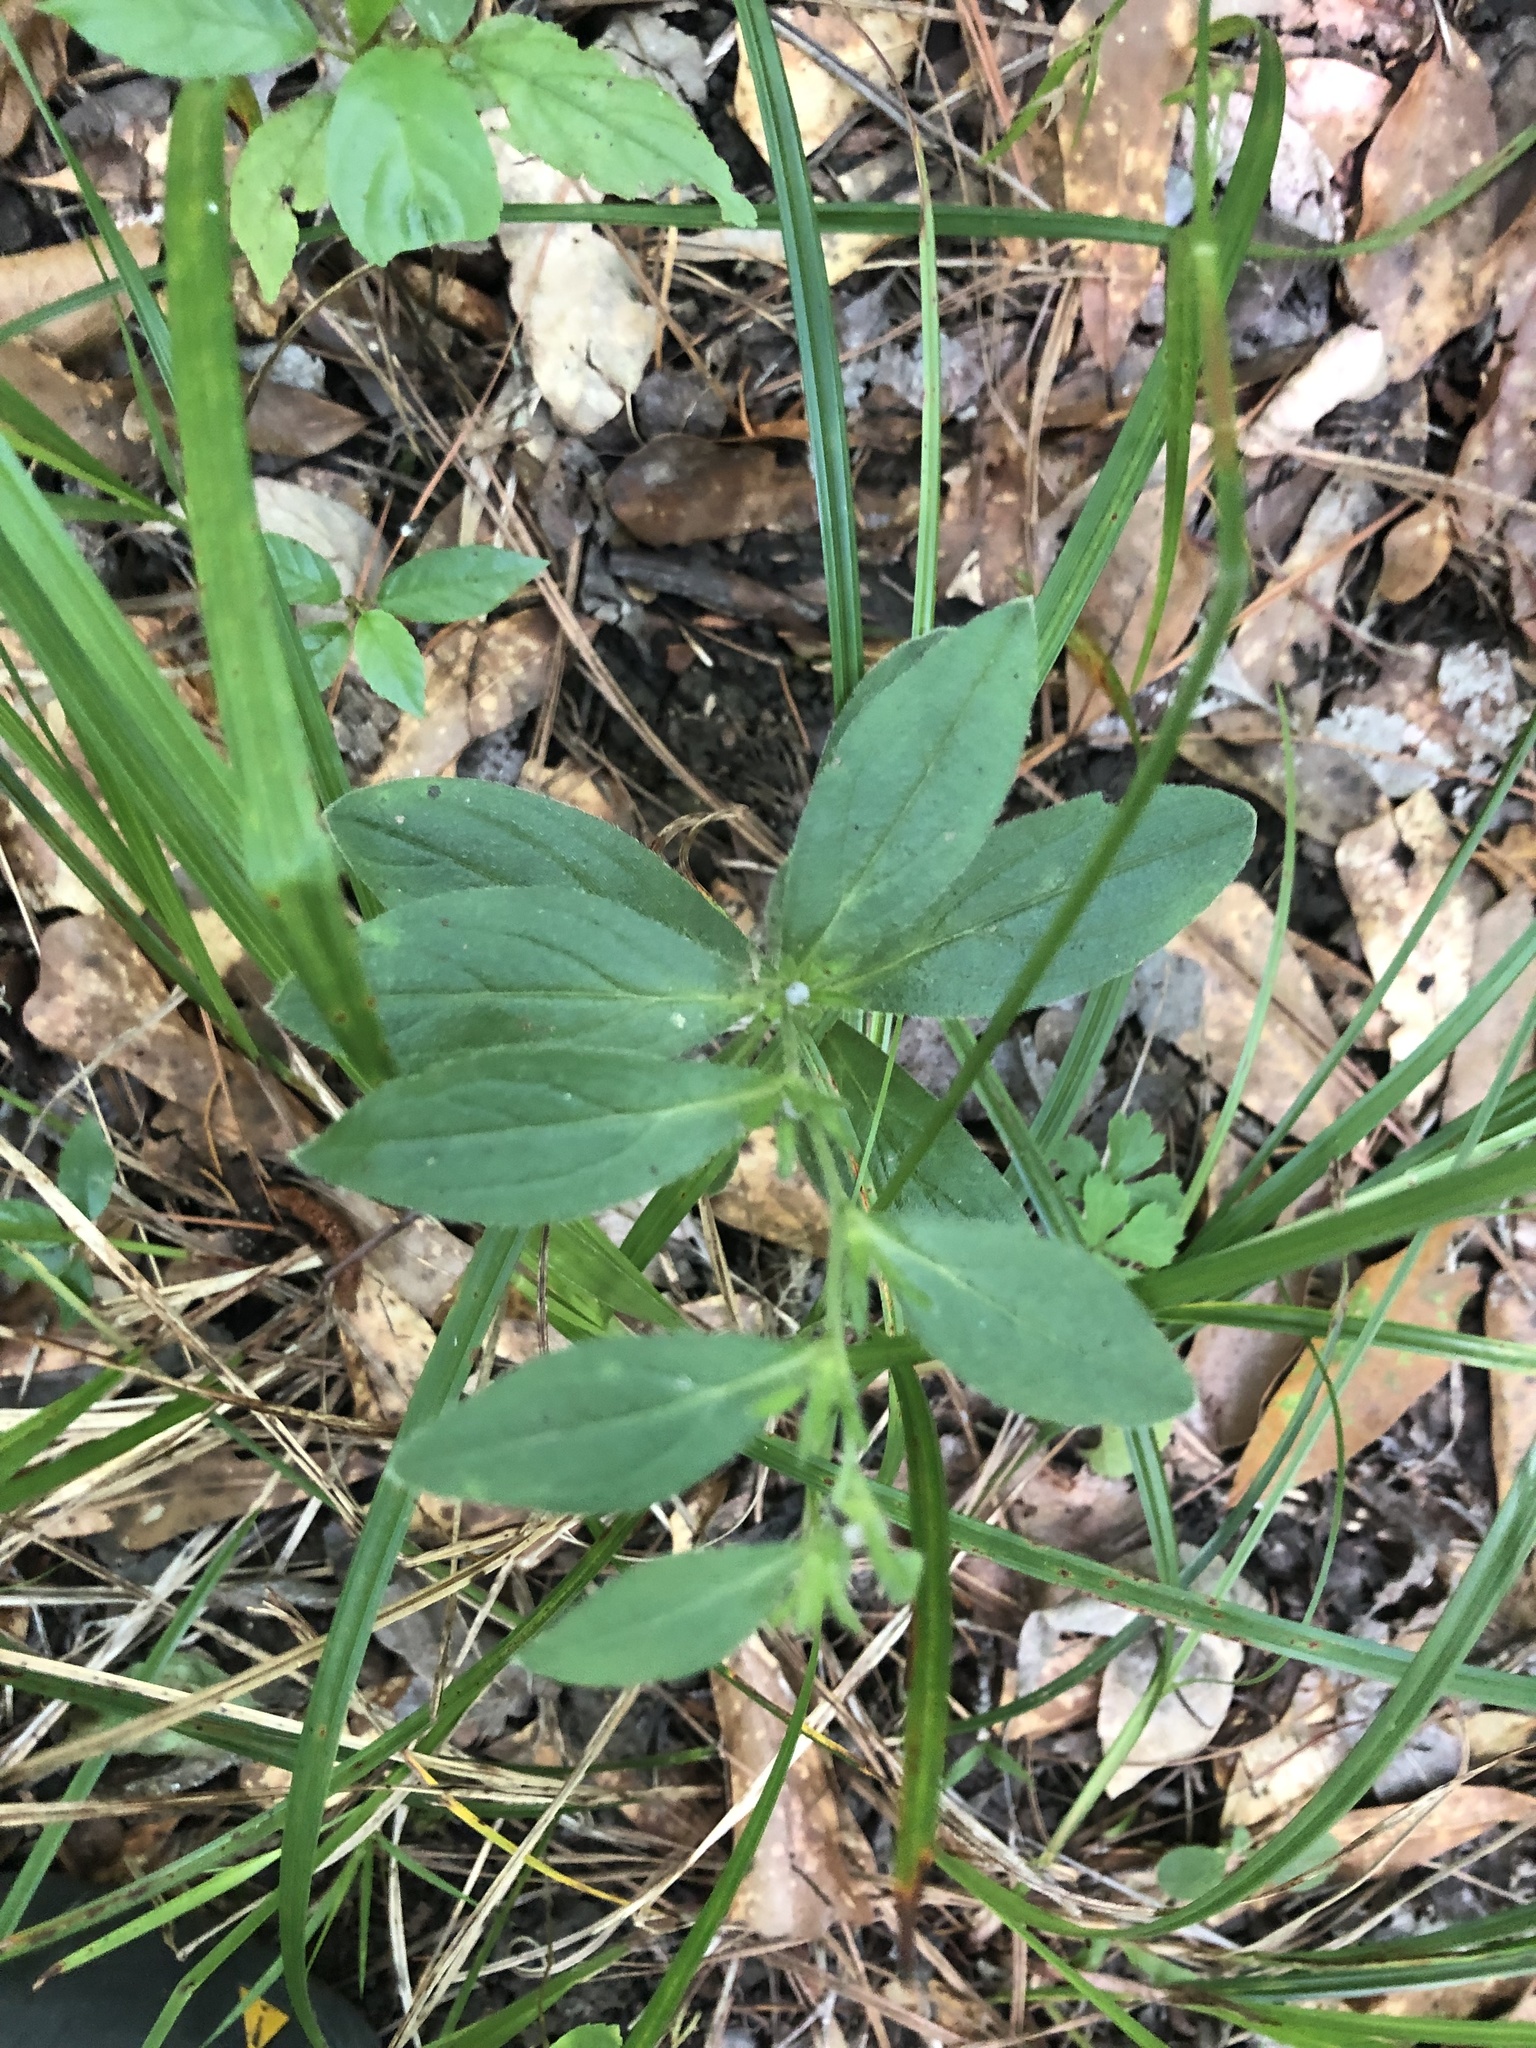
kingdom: Plantae
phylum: Tracheophyta
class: Magnoliopsida
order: Boraginales
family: Boraginaceae
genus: Lithospermum
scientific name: Lithospermum tuberosum
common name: Southern stoneseed
